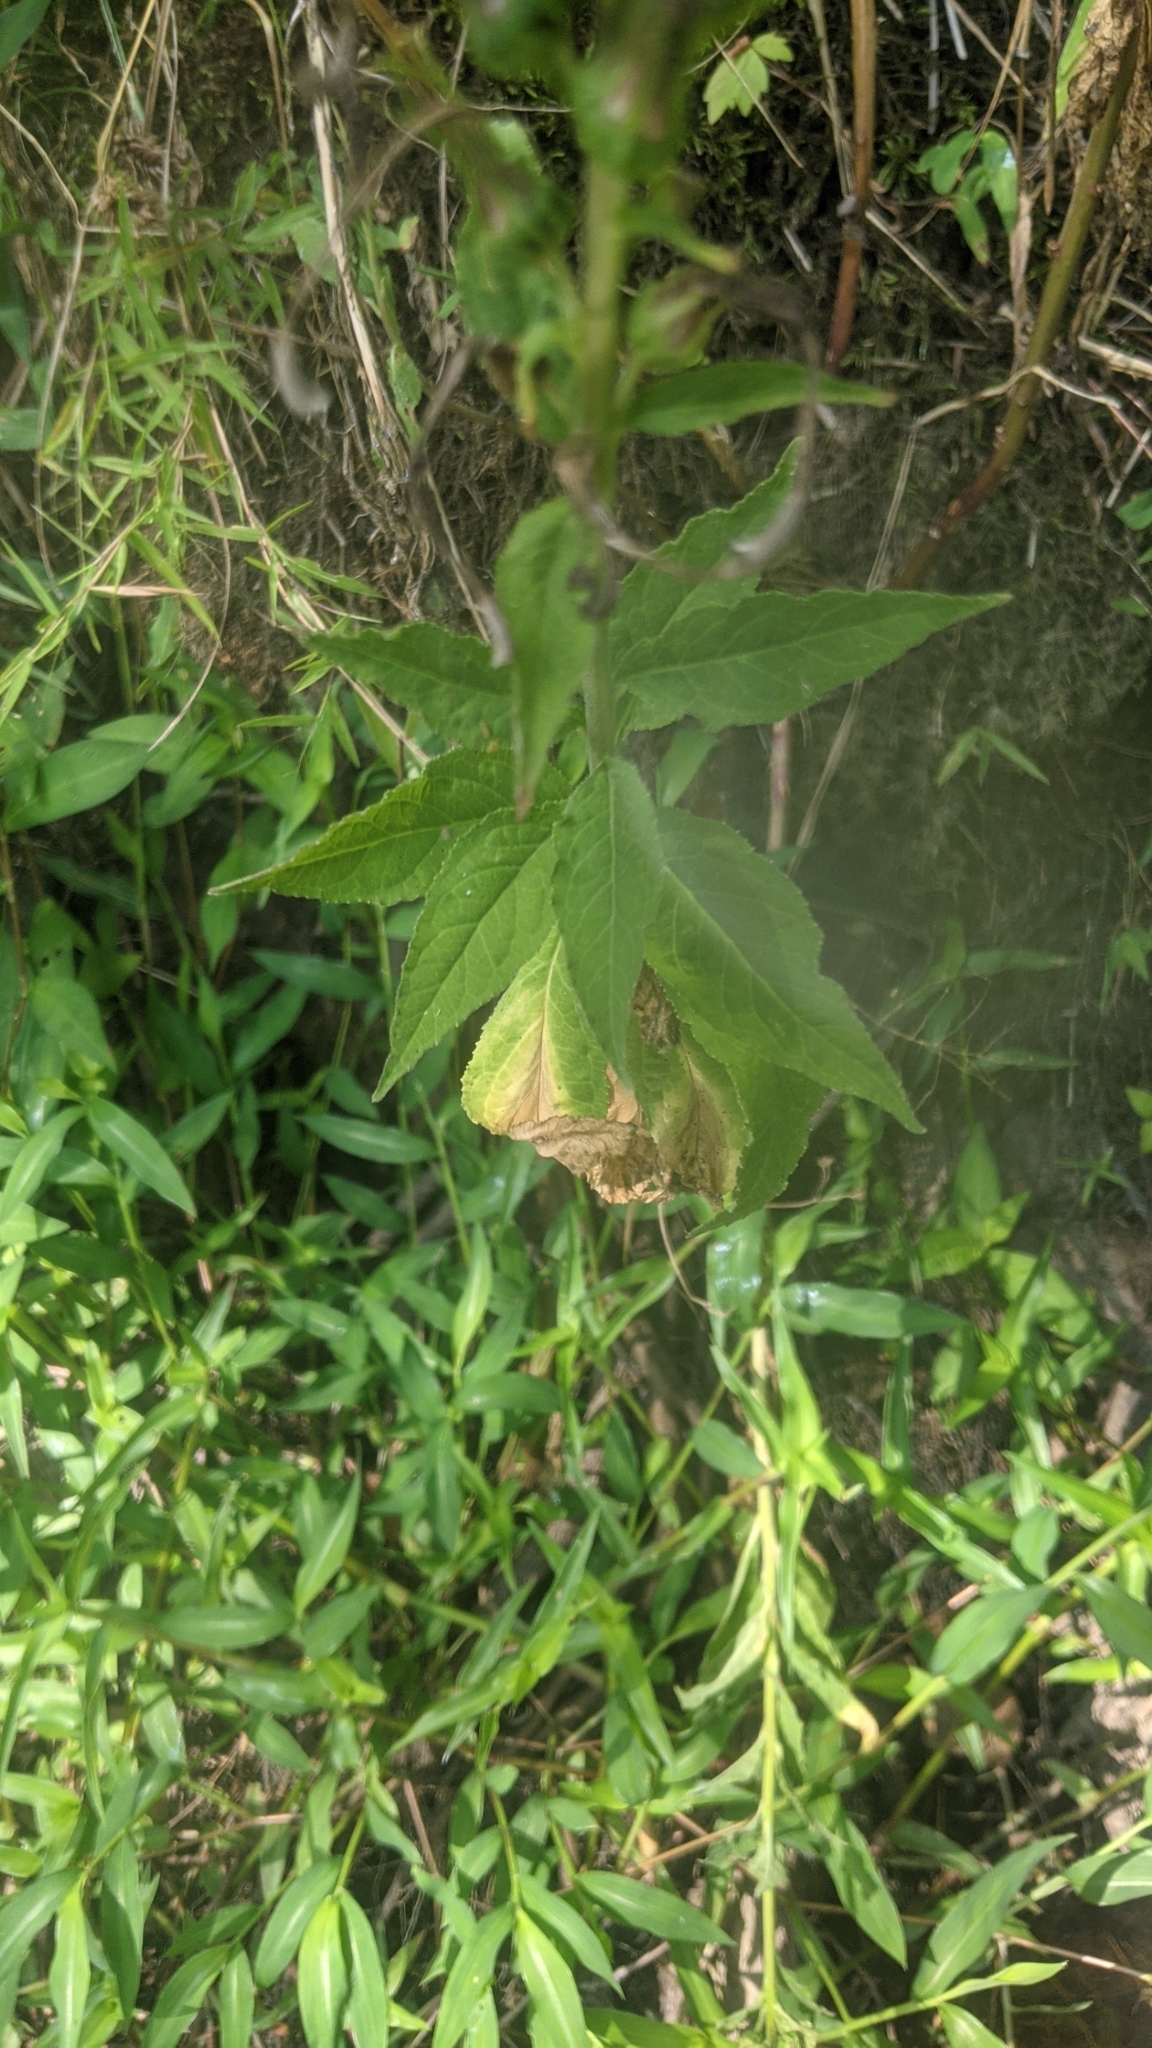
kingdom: Plantae
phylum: Tracheophyta
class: Magnoliopsida
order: Asterales
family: Campanulaceae
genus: Lobelia
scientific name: Lobelia cardinalis
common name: Cardinal flower
